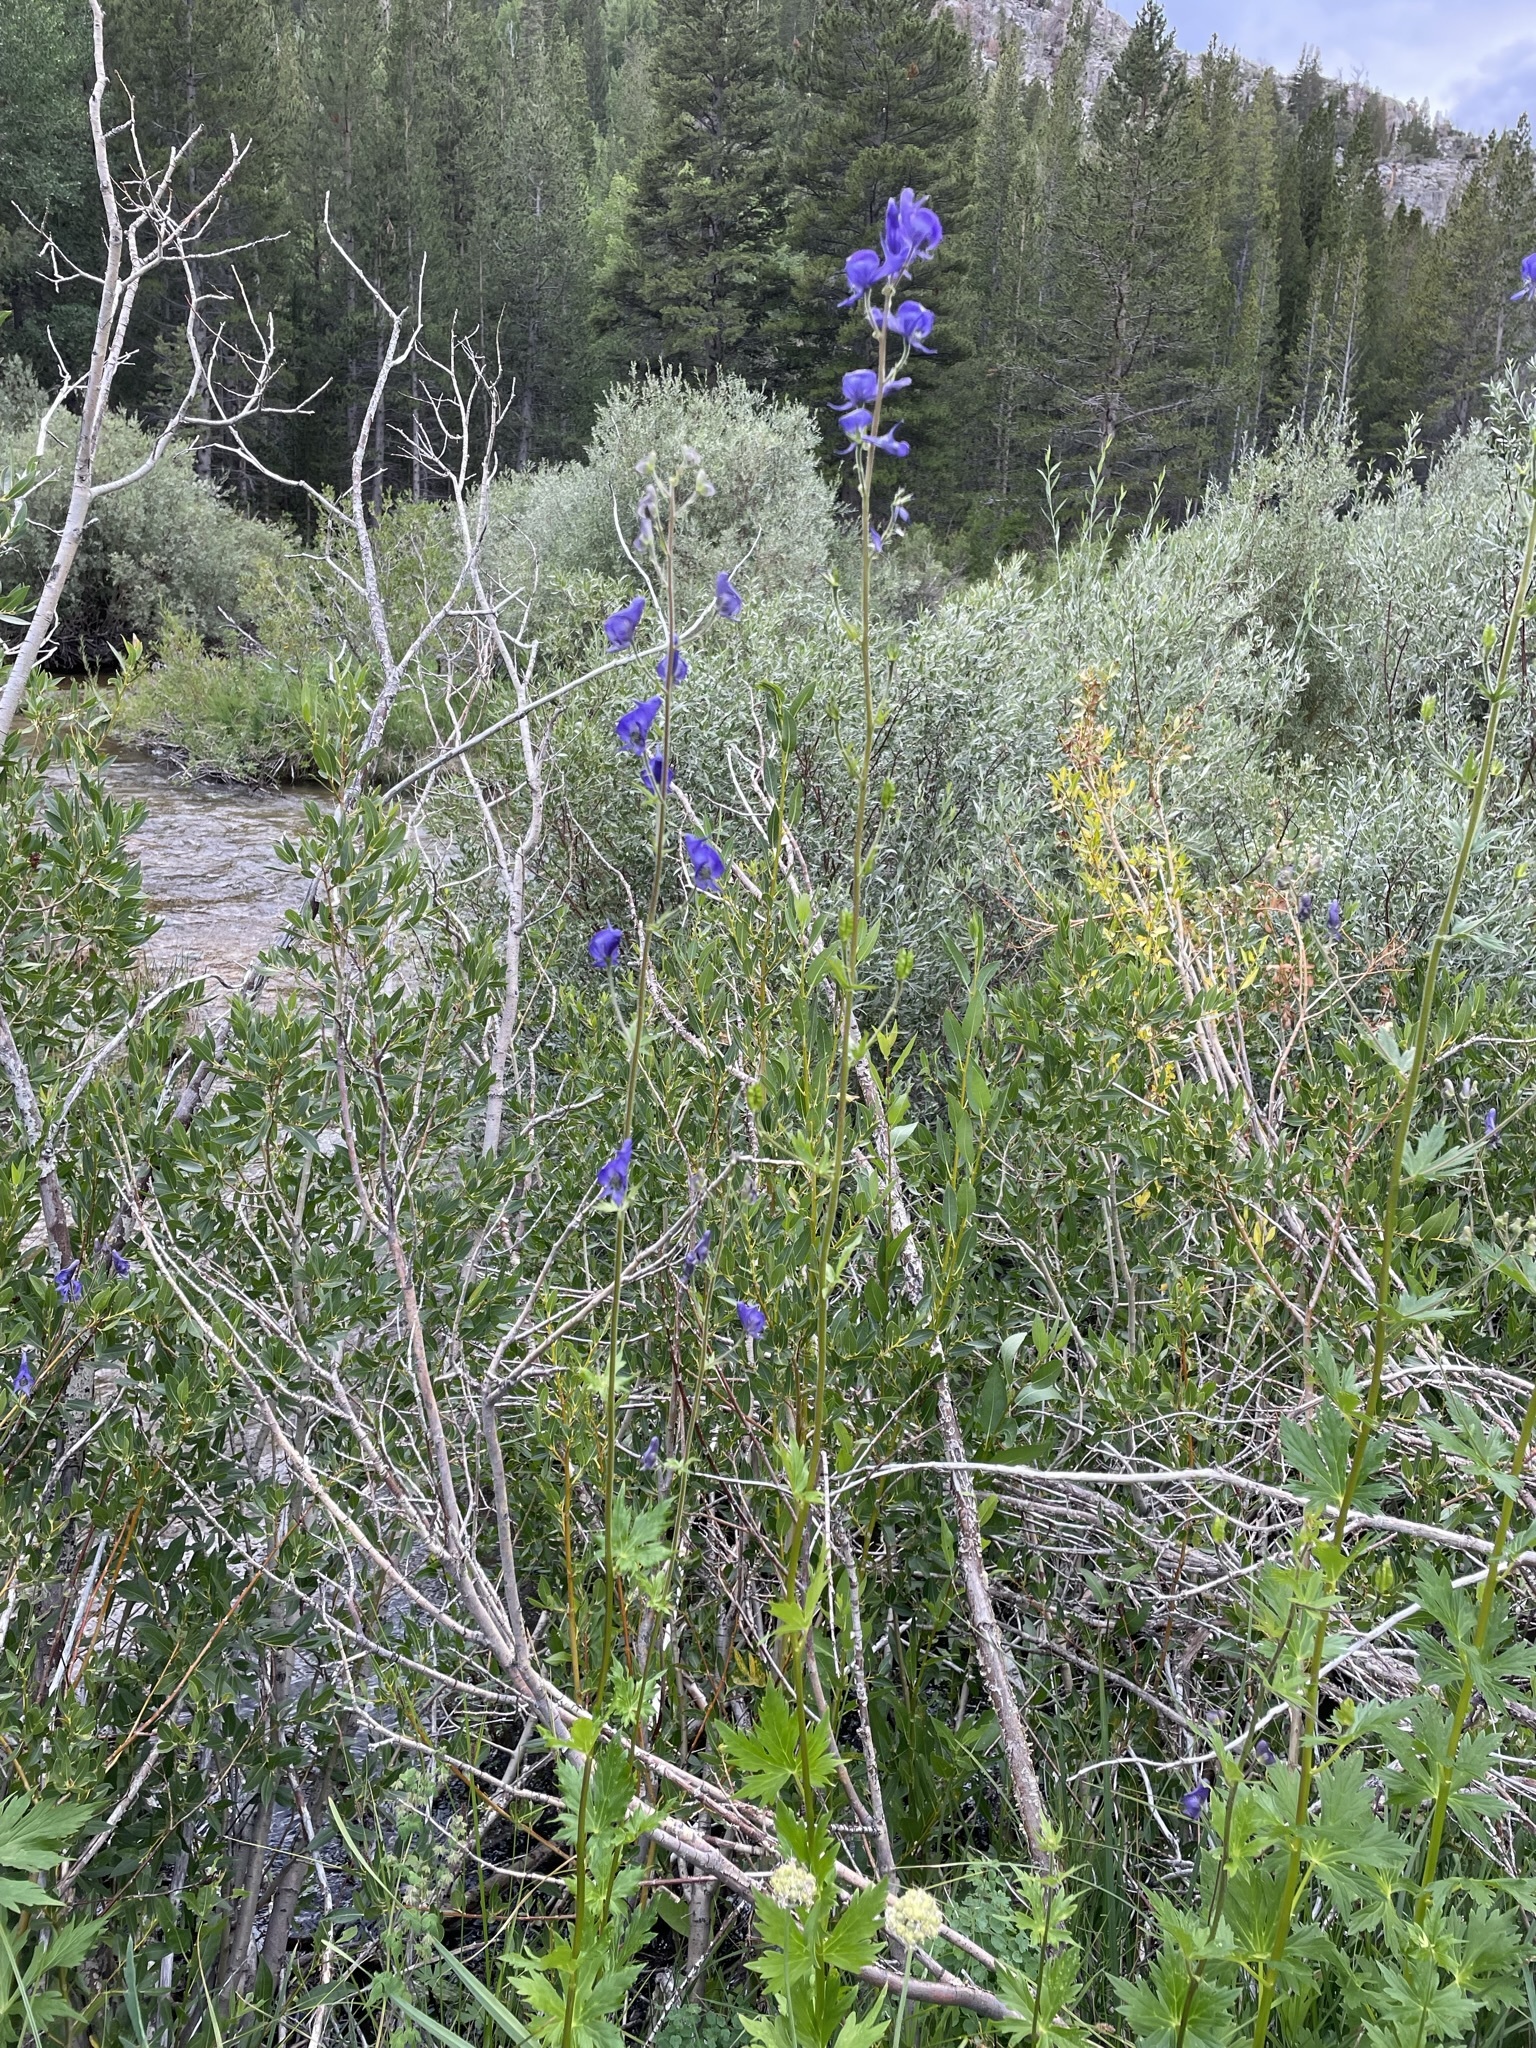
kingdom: Plantae
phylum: Tracheophyta
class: Magnoliopsida
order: Ranunculales
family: Ranunculaceae
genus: Aconitum
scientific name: Aconitum columbianum
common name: Columbia aconite
